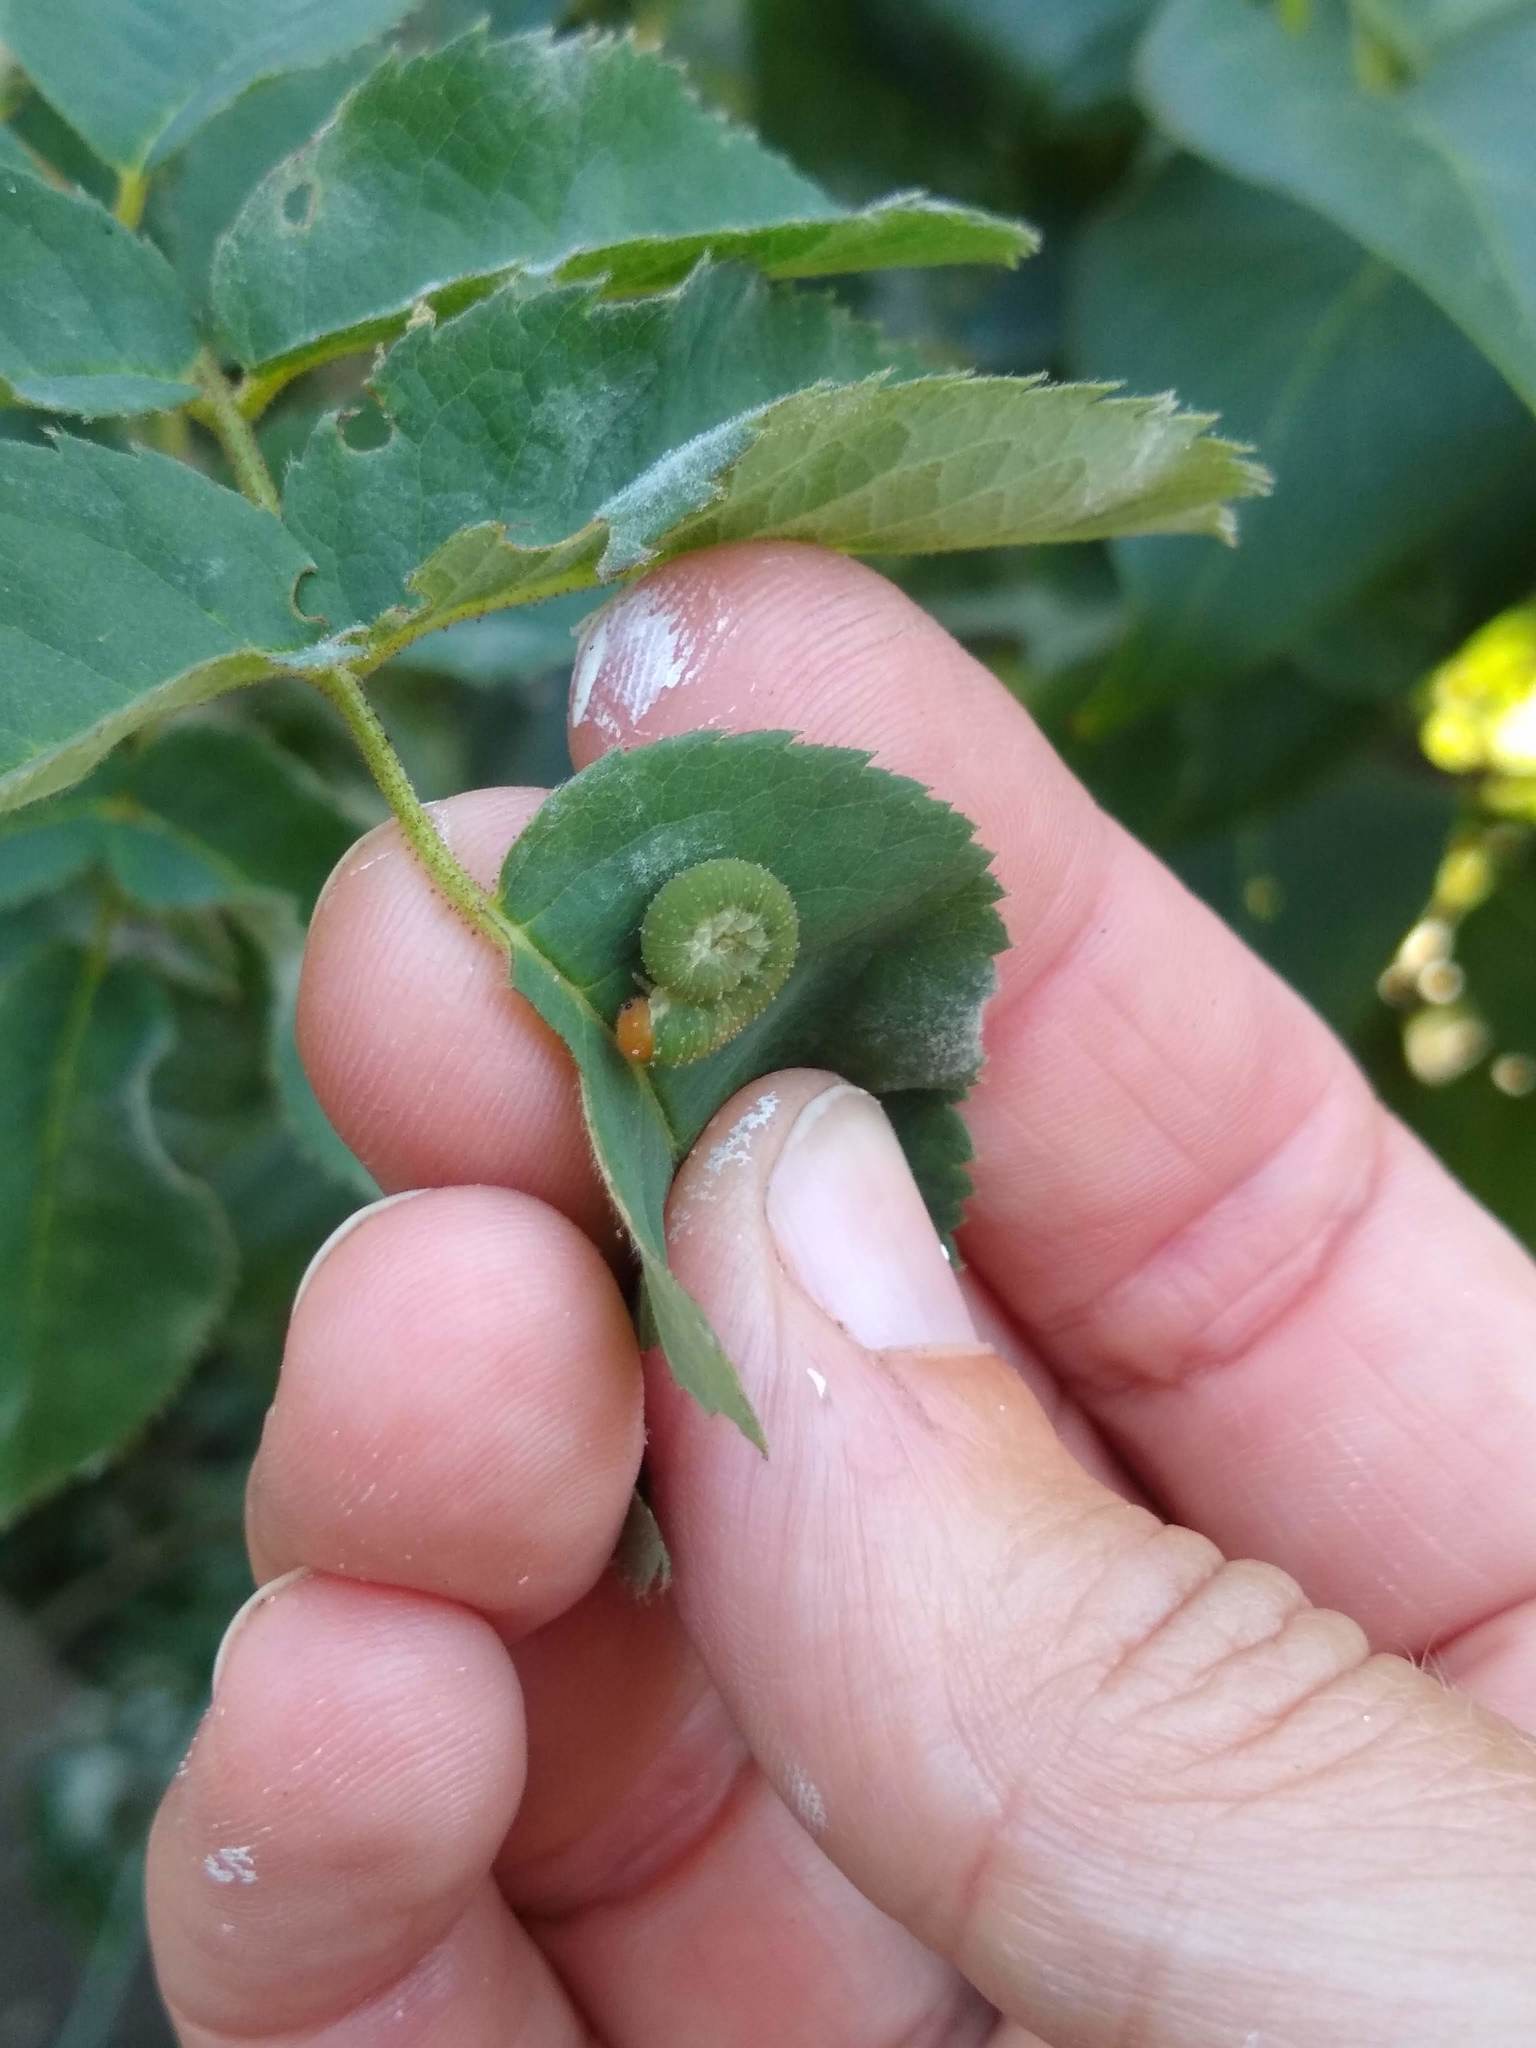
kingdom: Animalia
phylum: Arthropoda
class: Insecta
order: Hymenoptera
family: Tenthredinidae
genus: Allantus
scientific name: Allantus
